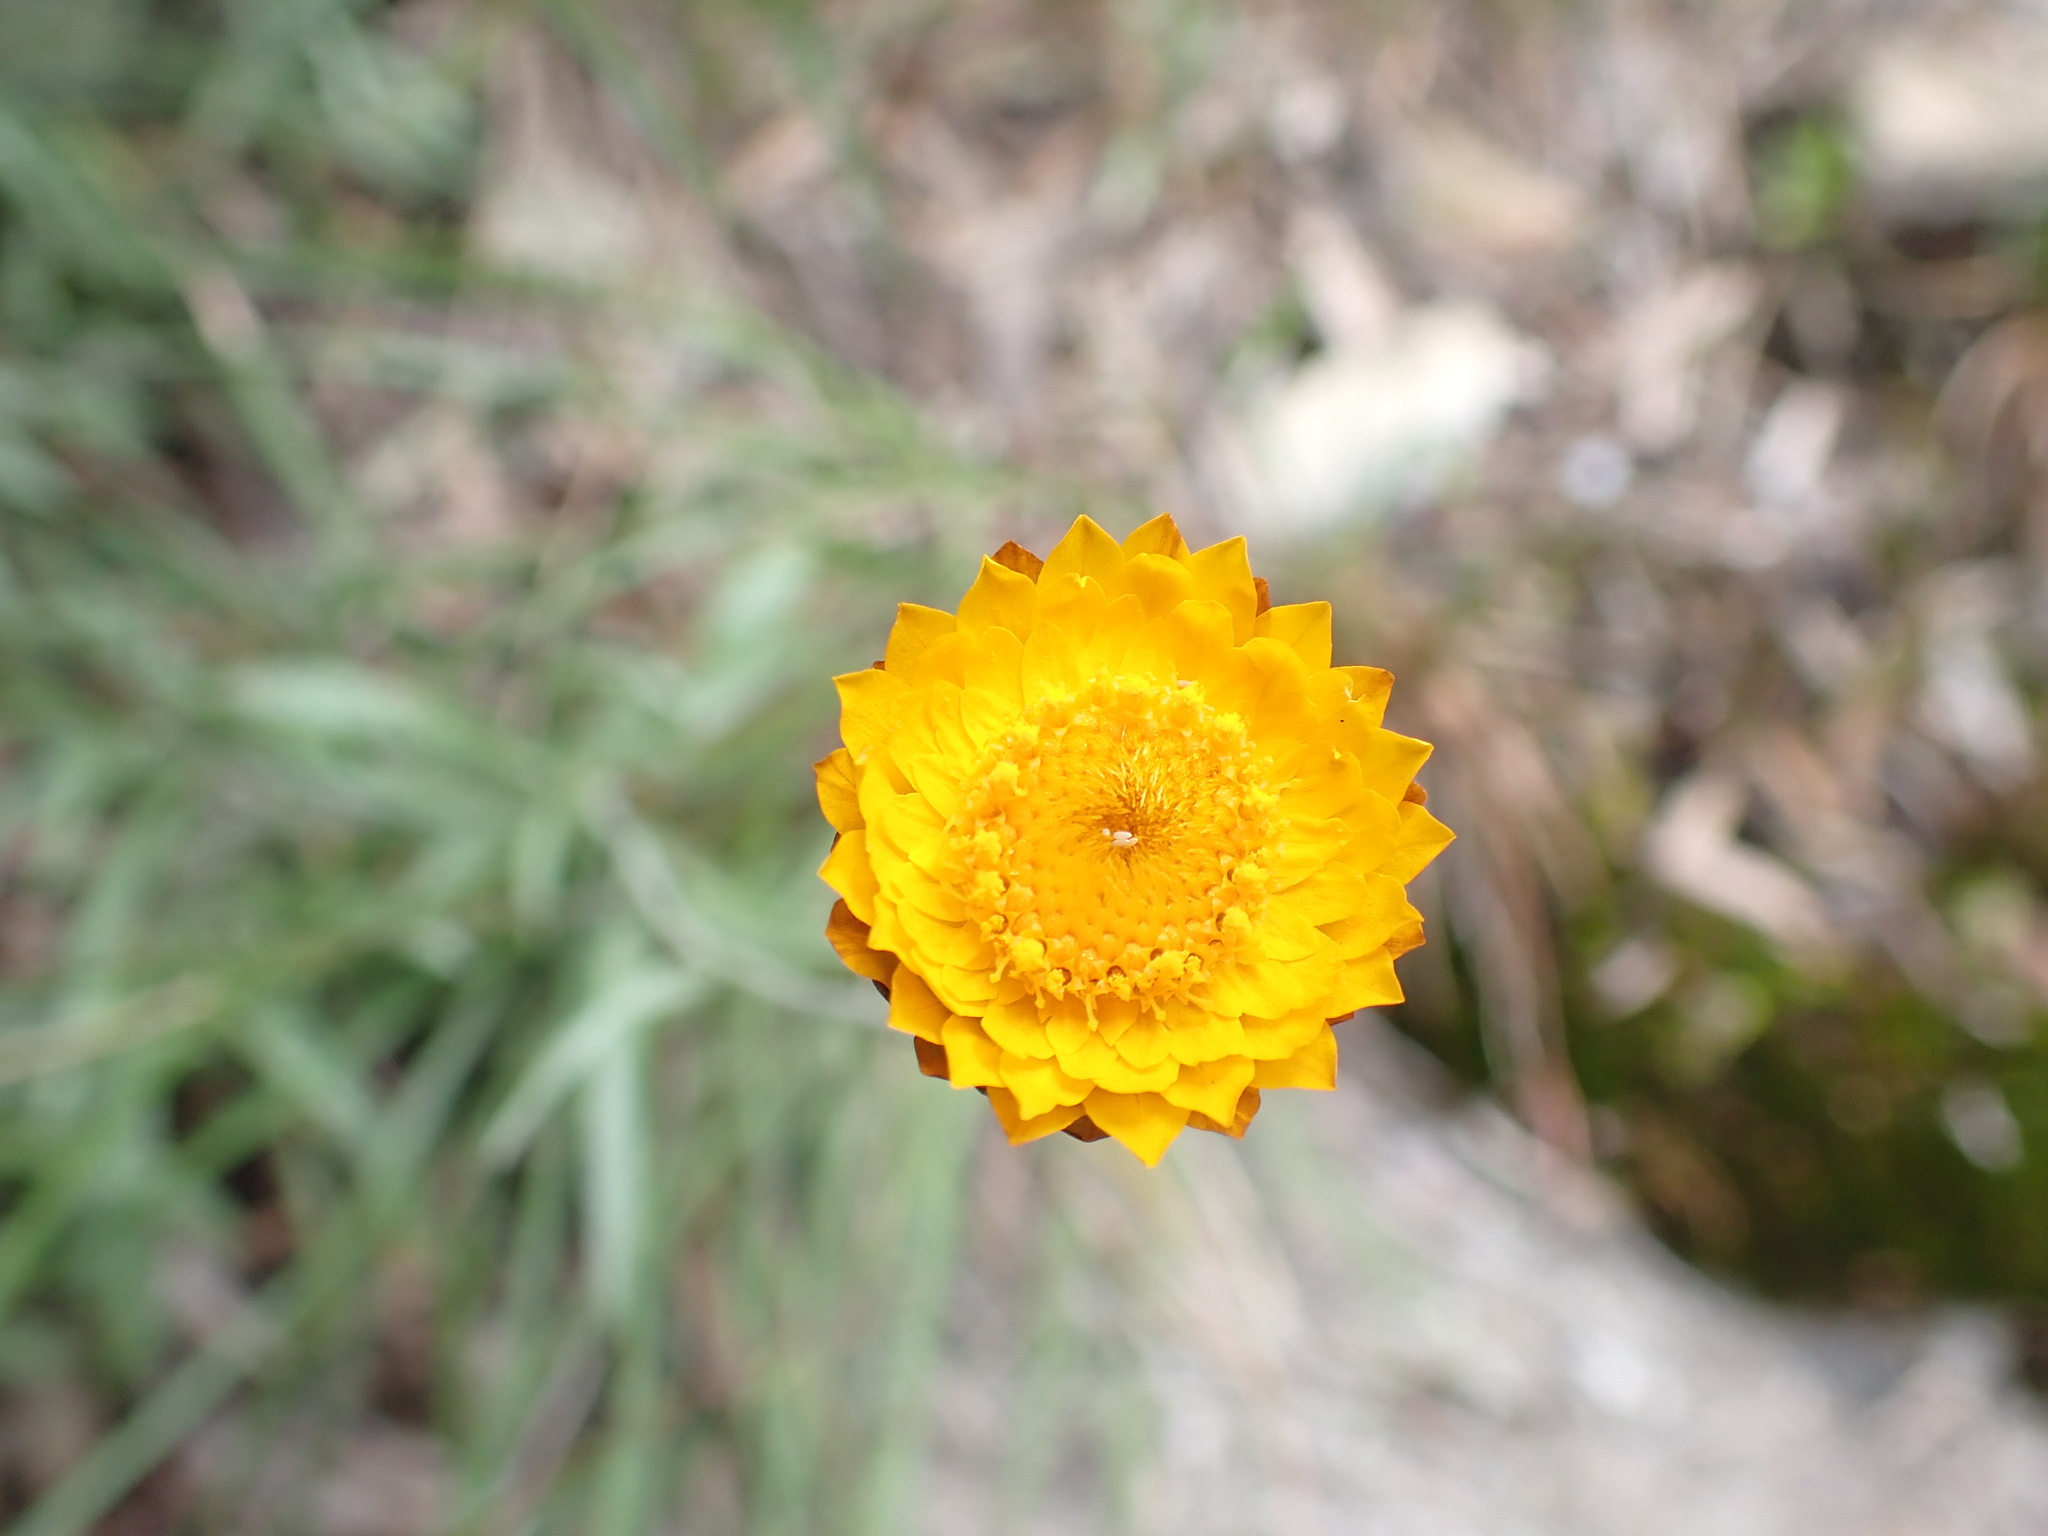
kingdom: Plantae
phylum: Tracheophyta
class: Magnoliopsida
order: Asterales
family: Asteraceae
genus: Leucochrysum
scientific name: Leucochrysum albicans
